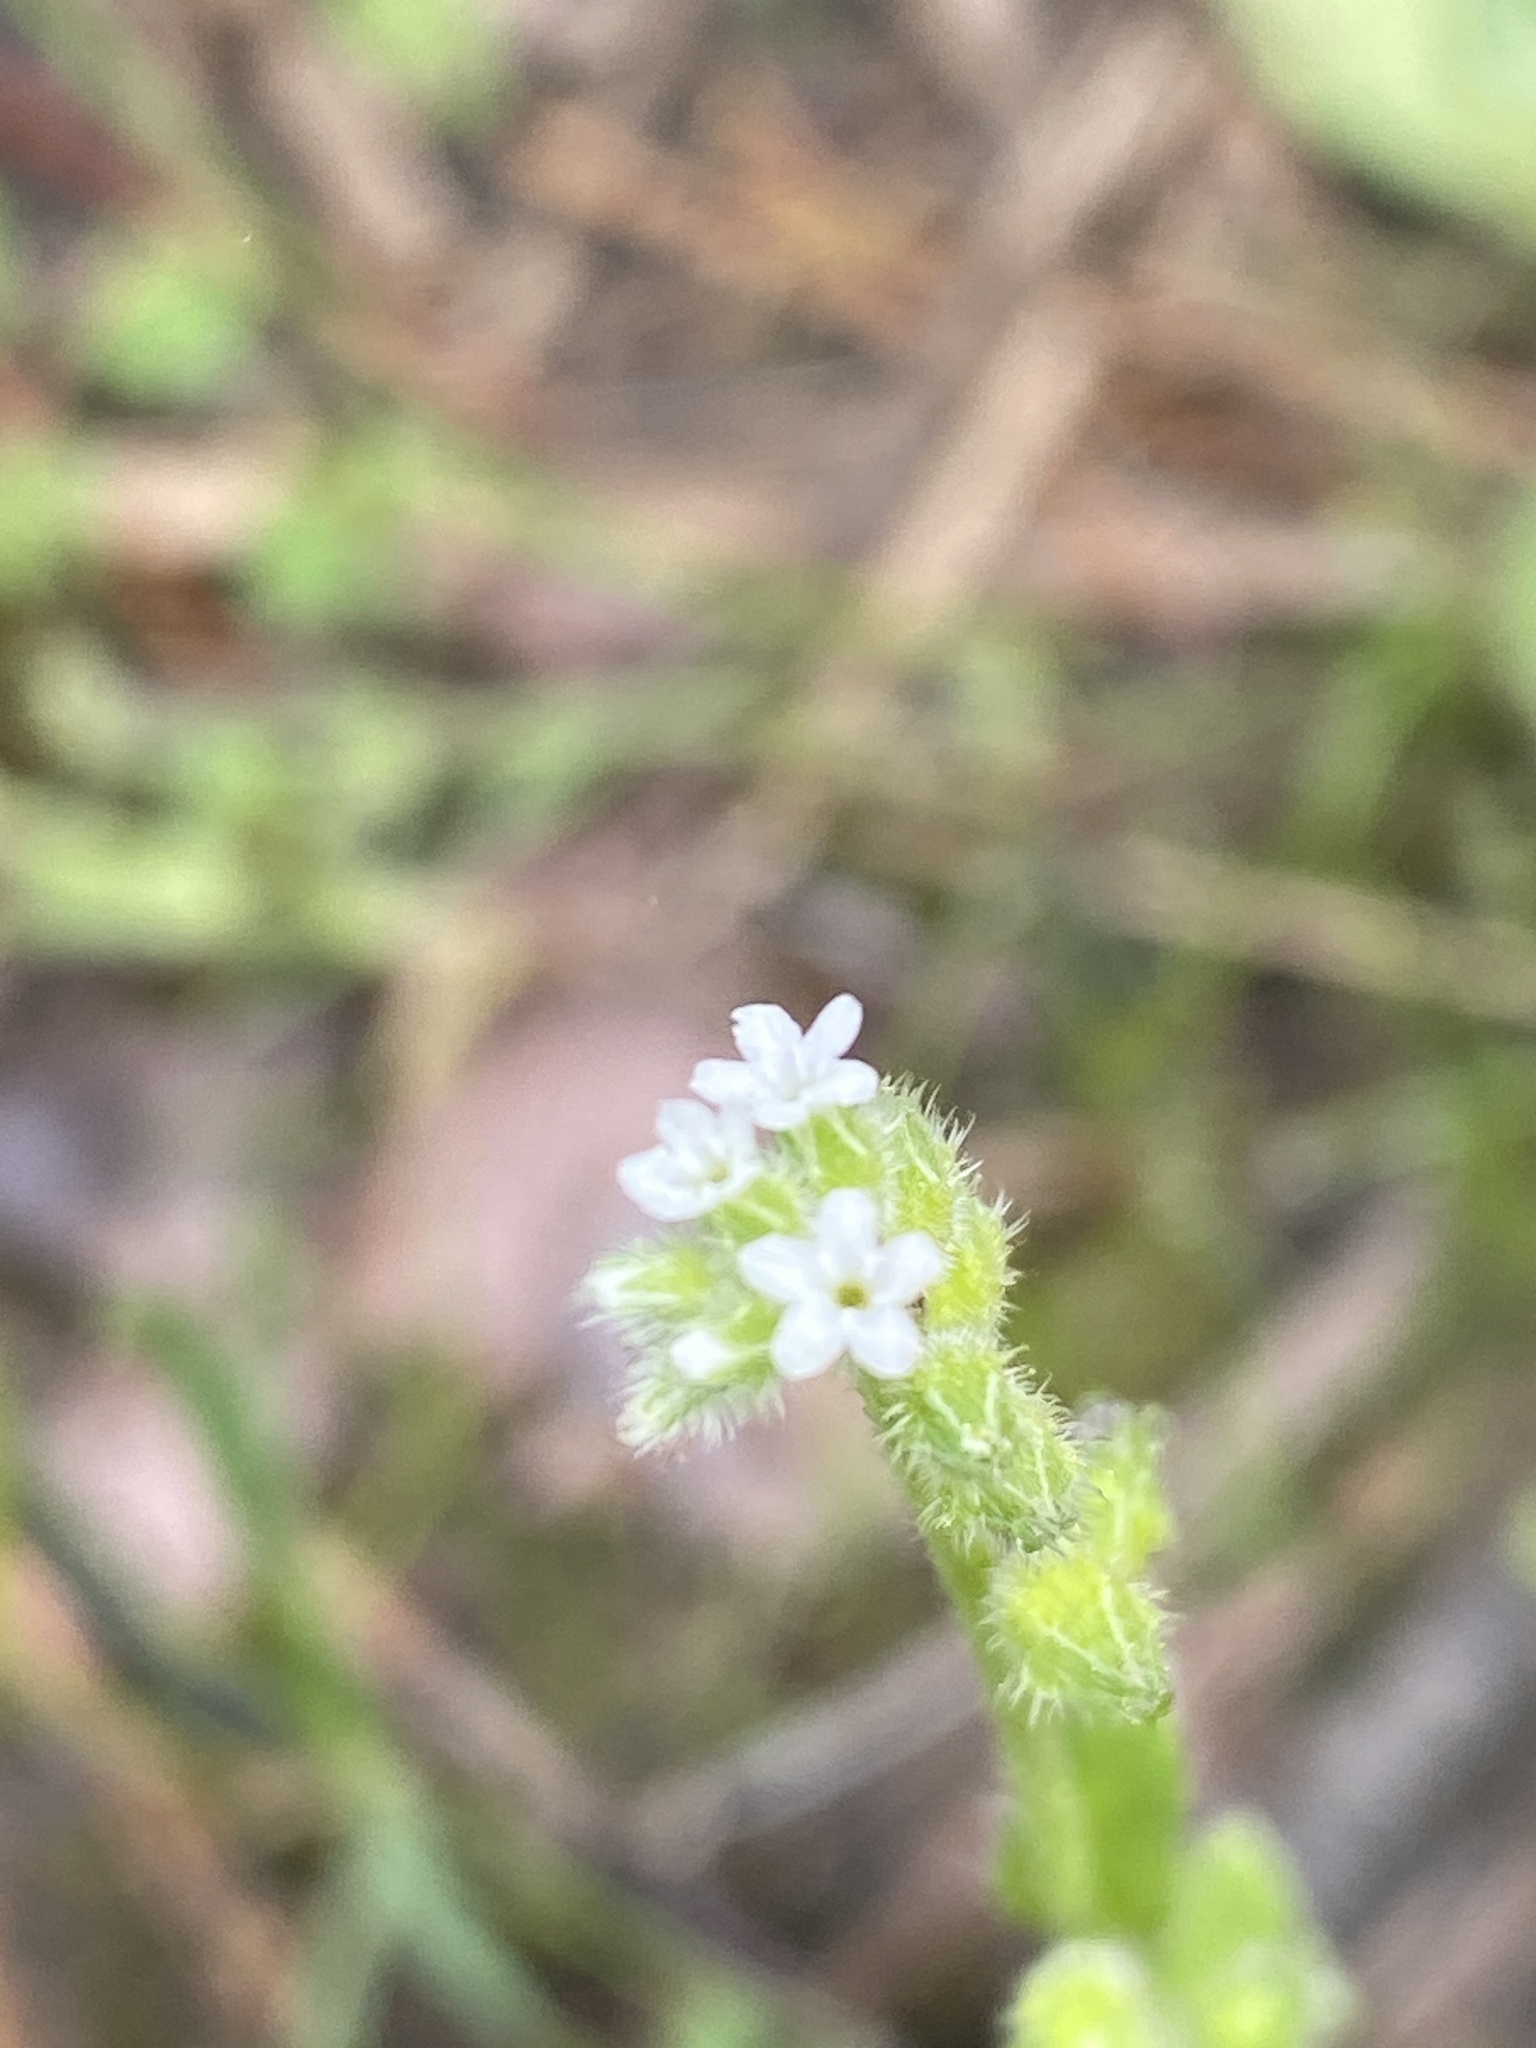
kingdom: Plantae
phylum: Tracheophyta
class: Magnoliopsida
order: Boraginales
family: Boraginaceae
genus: Myosotis
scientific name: Myosotis verna
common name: Early forget-me-not
